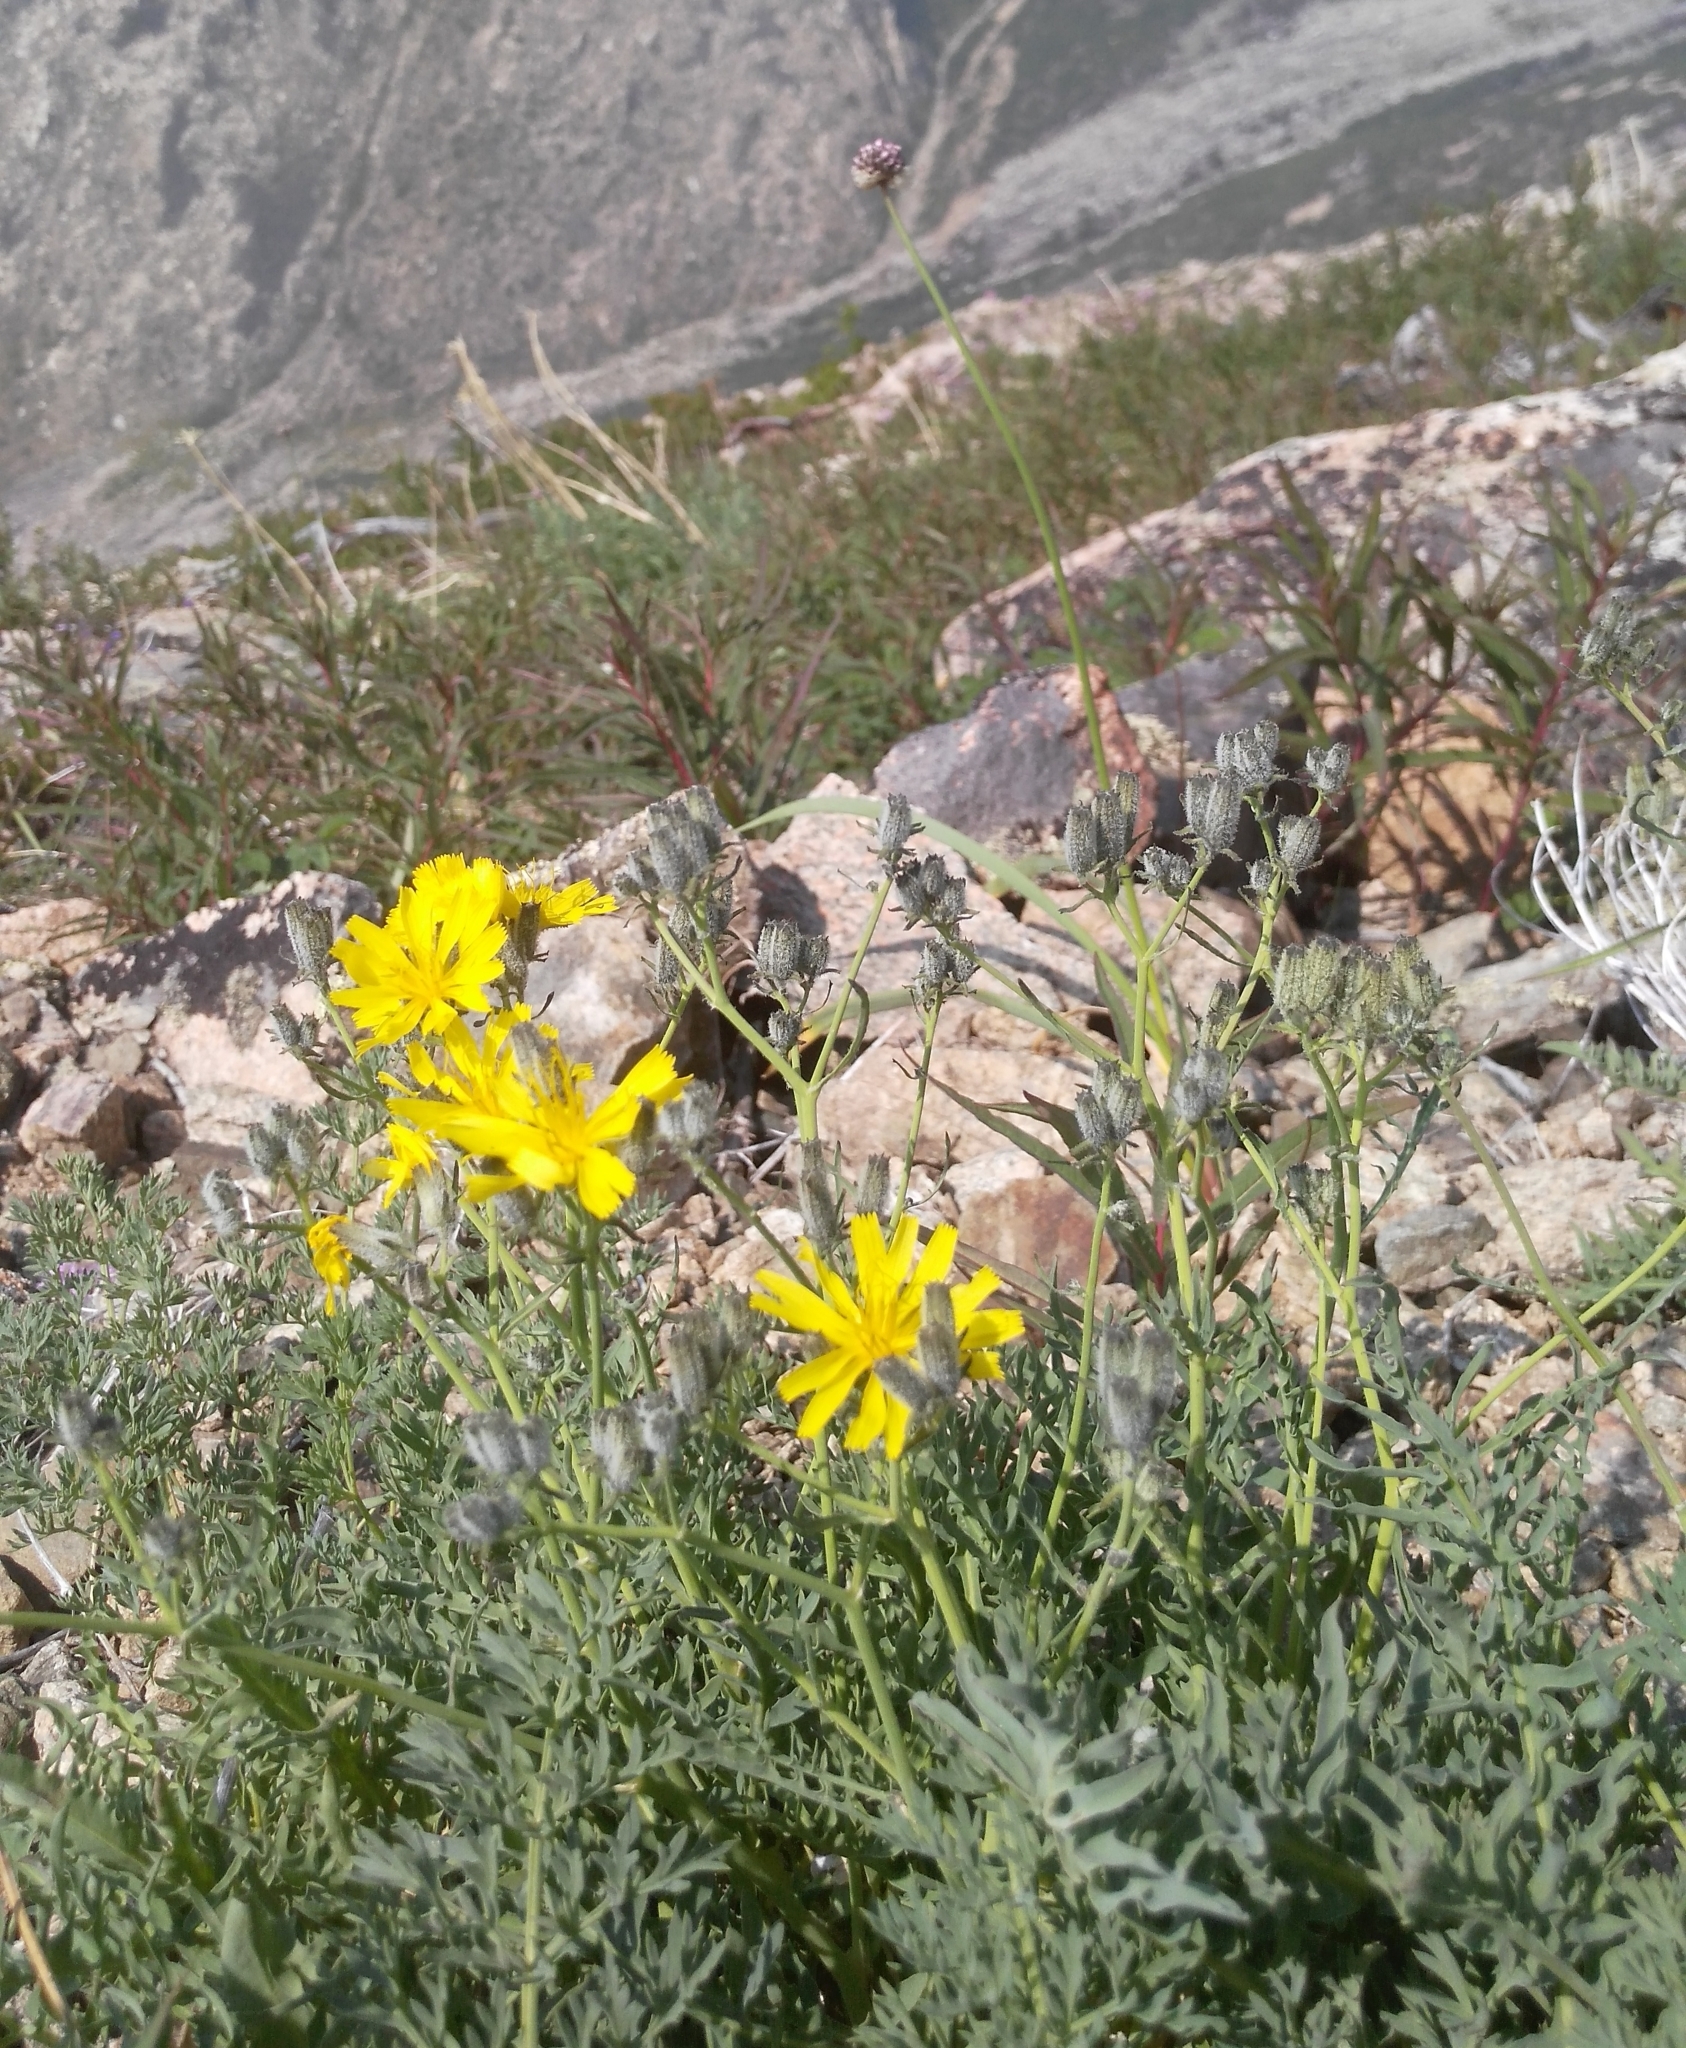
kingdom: Plantae
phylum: Tracheophyta
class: Magnoliopsida
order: Asterales
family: Asteraceae
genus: Crepidiastrum
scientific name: Crepidiastrum tenuifolium
